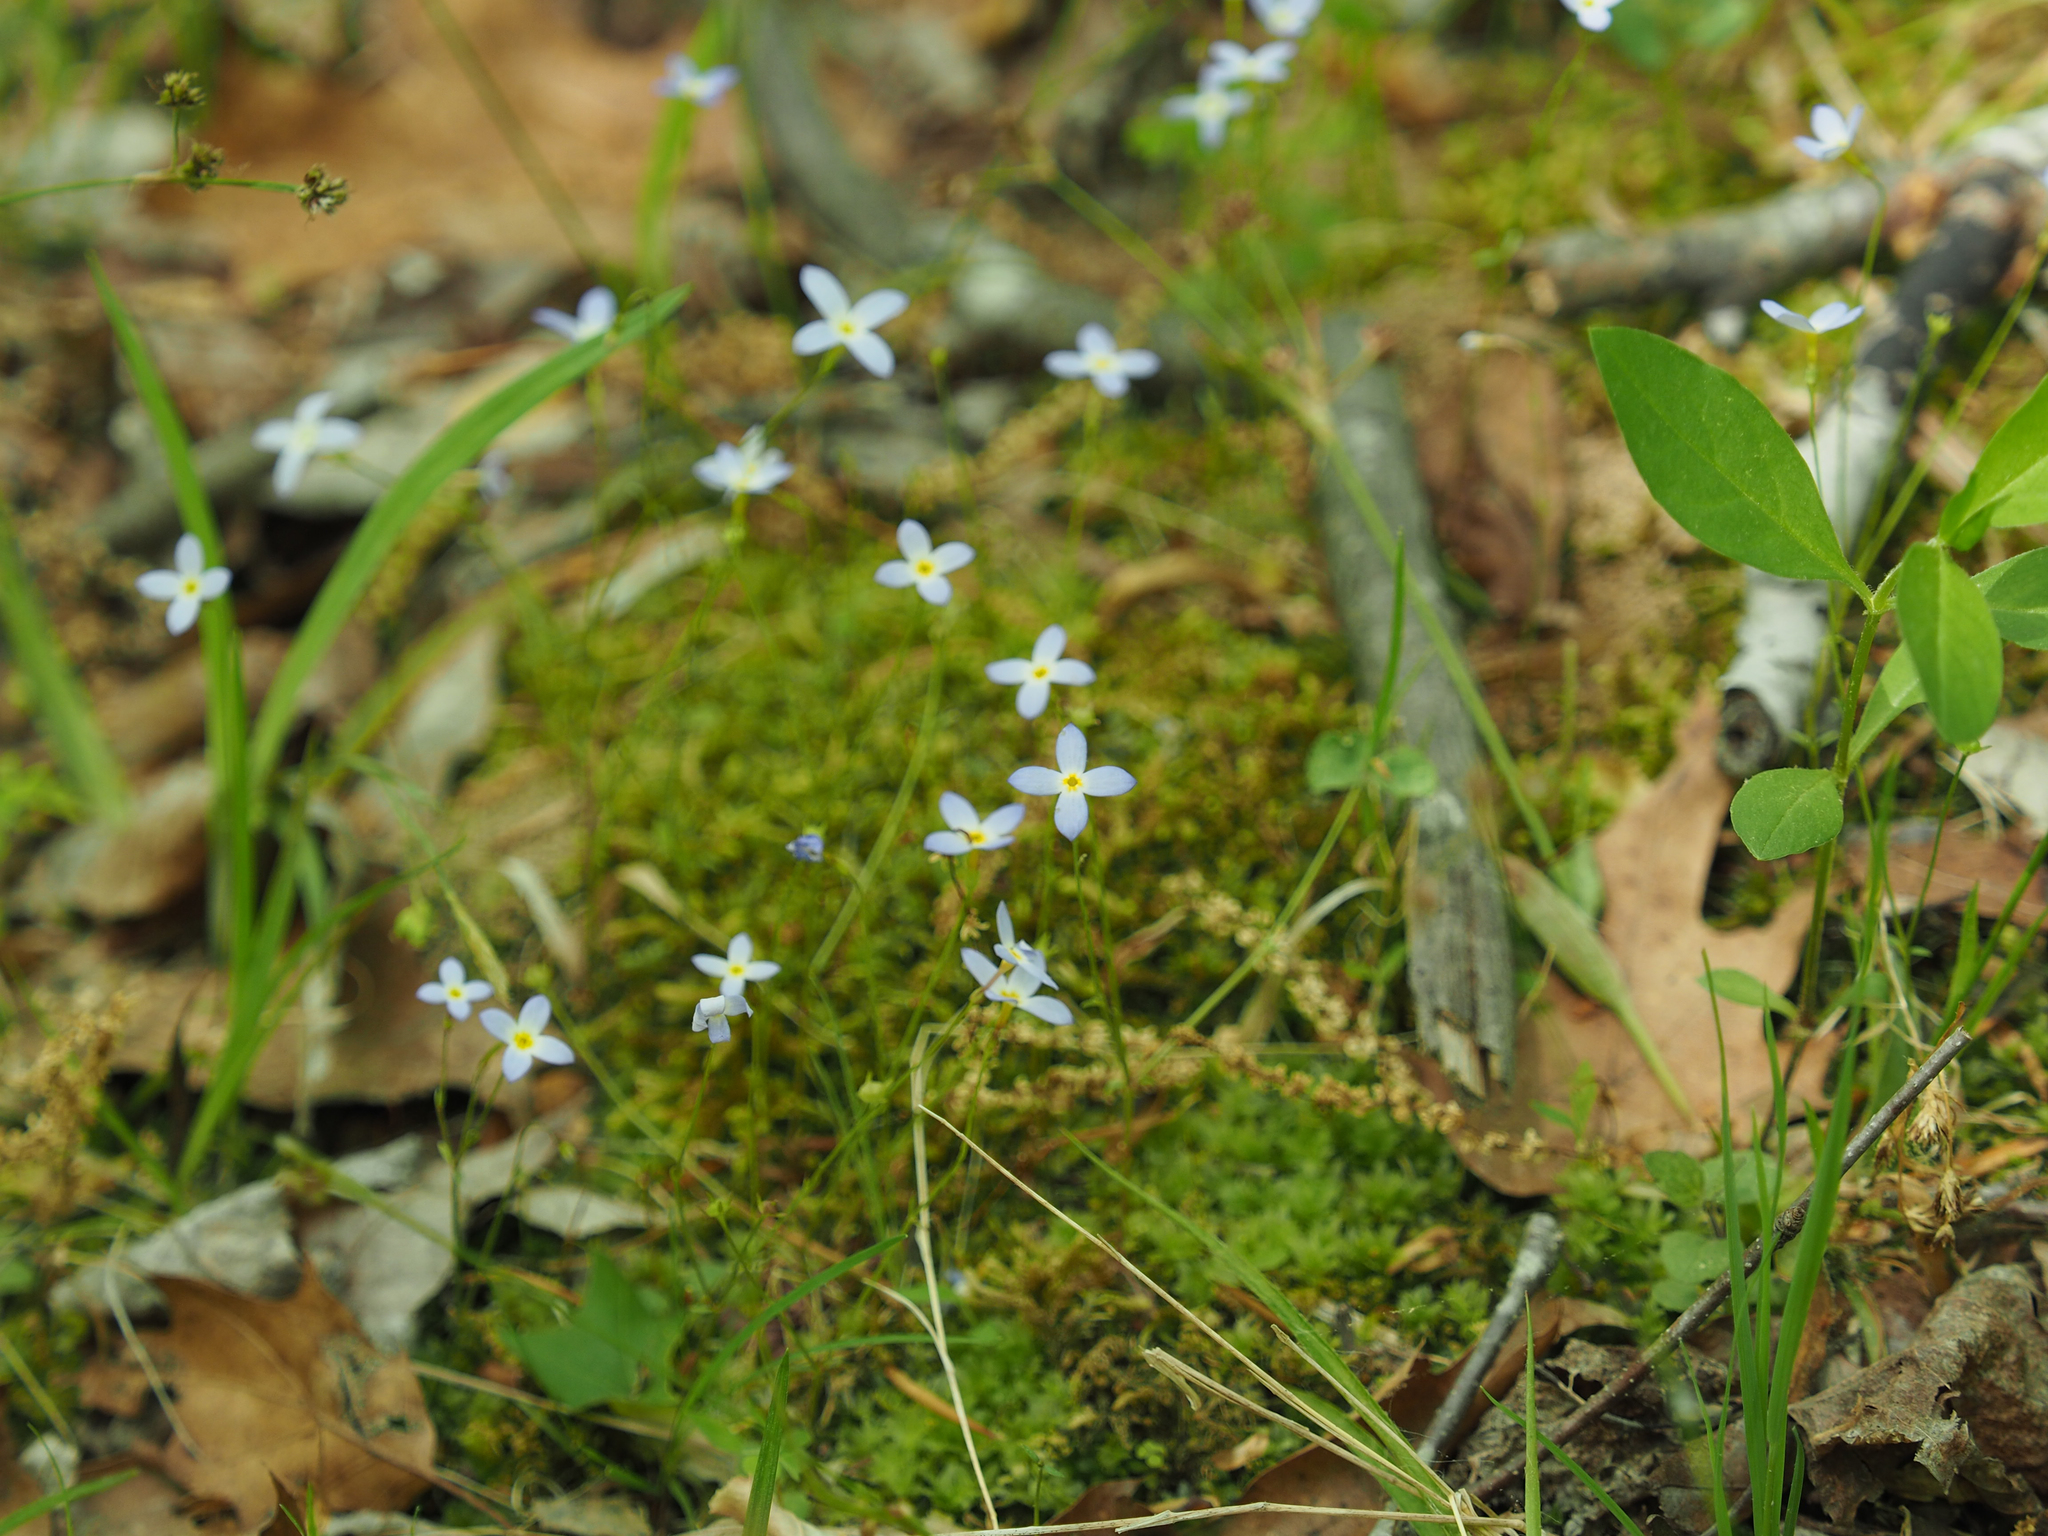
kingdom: Plantae
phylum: Tracheophyta
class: Magnoliopsida
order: Gentianales
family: Rubiaceae
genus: Houstonia
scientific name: Houstonia caerulea
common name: Bluets
